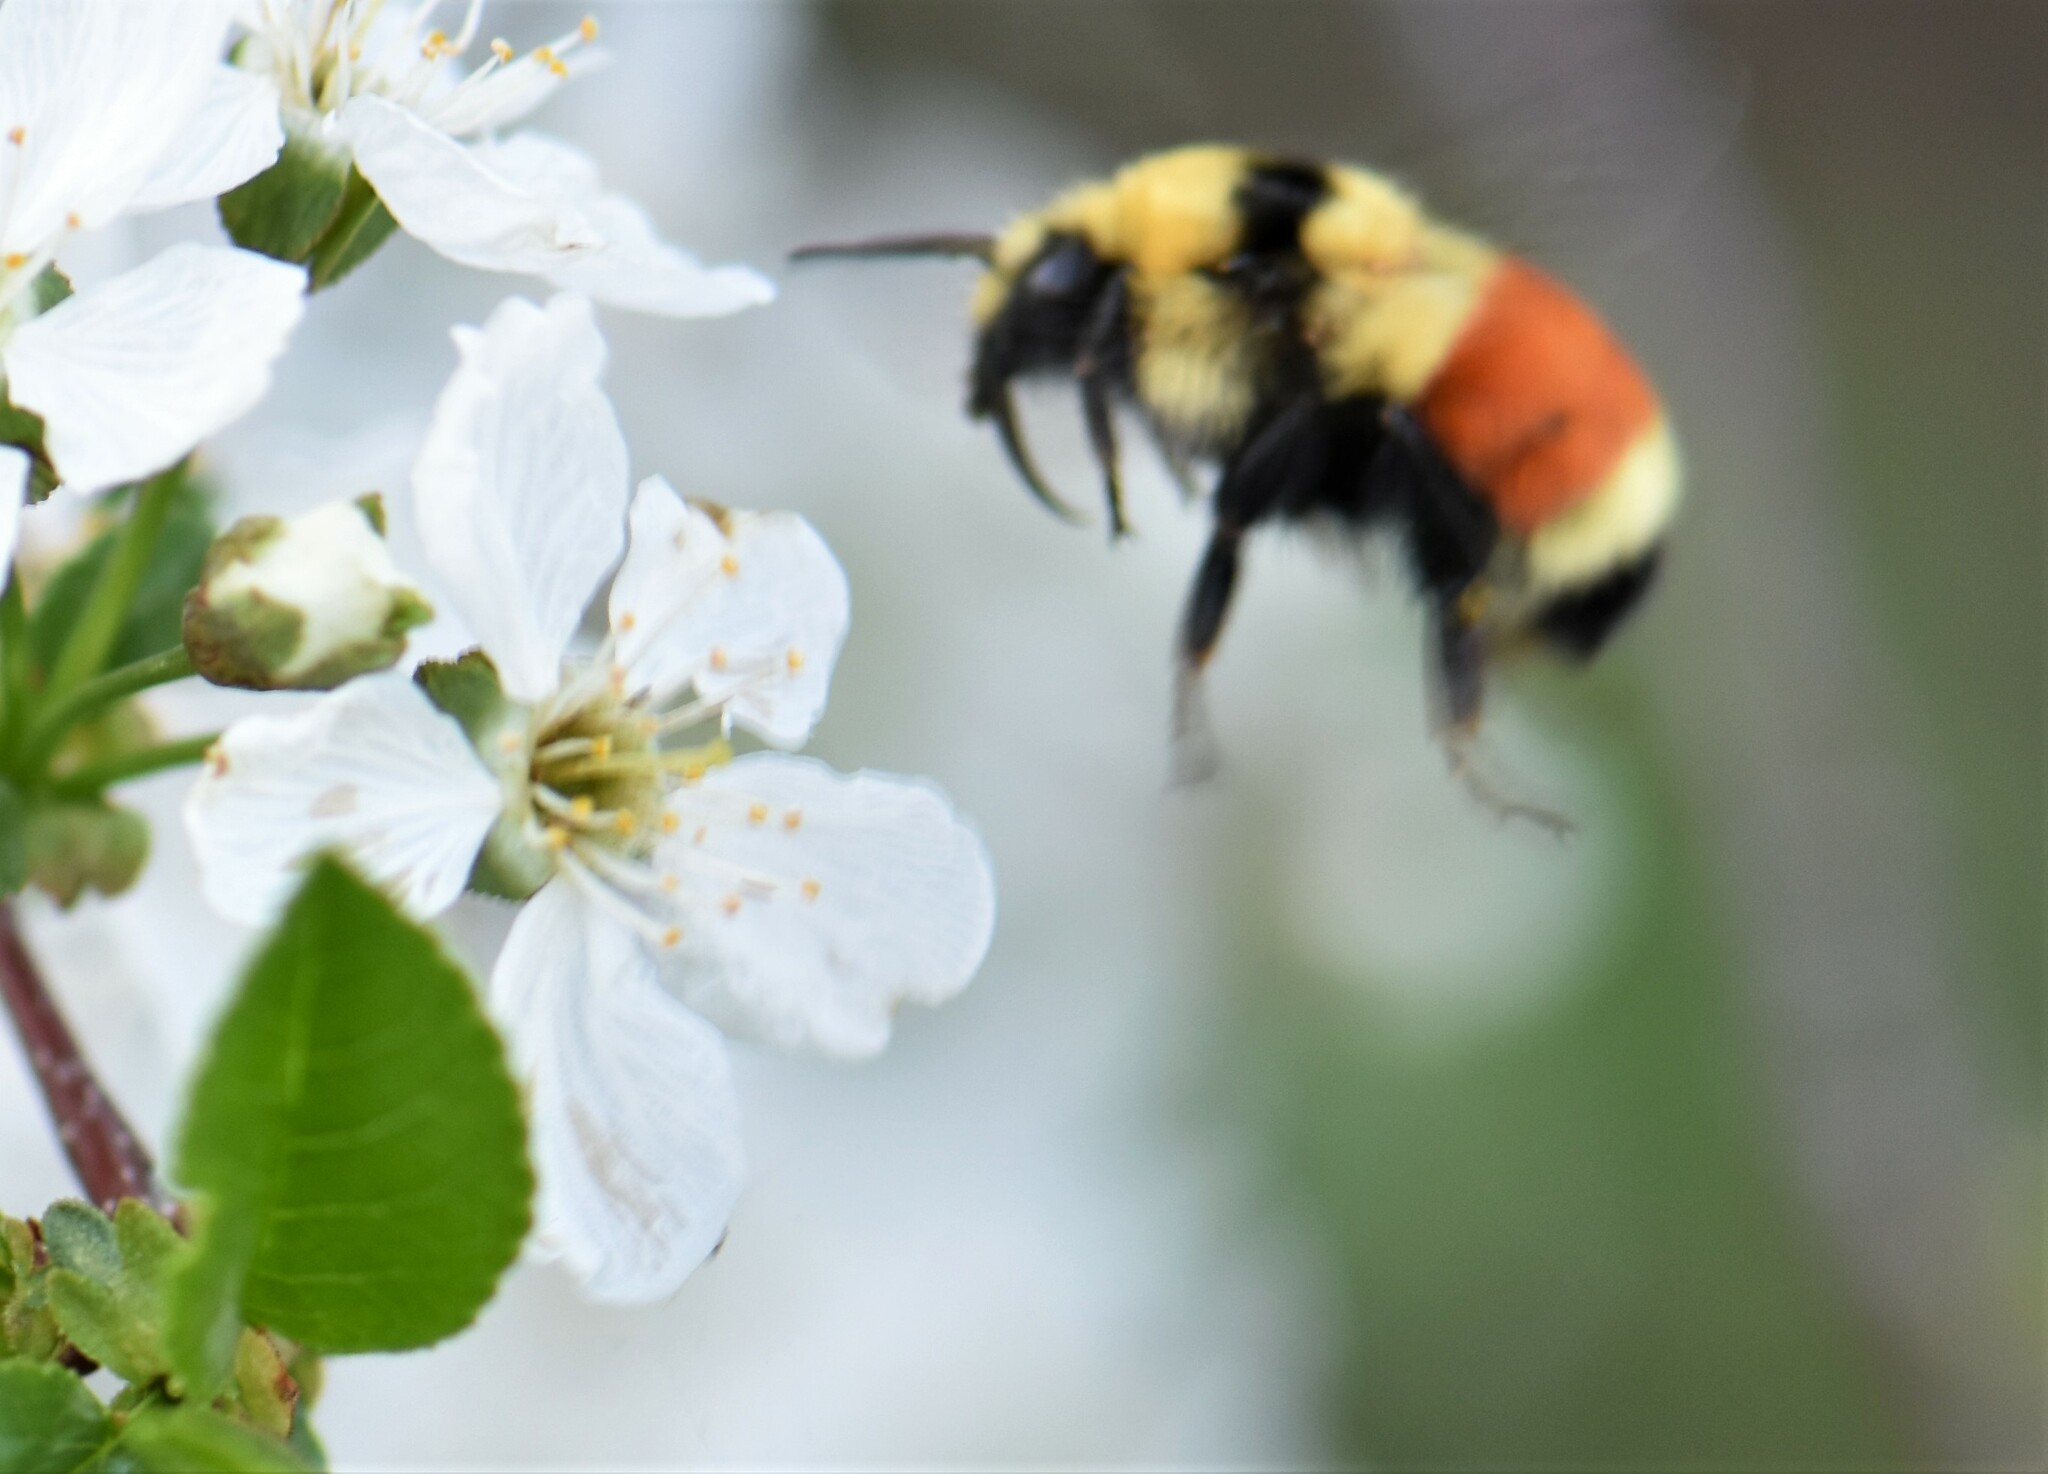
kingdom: Animalia
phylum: Arthropoda
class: Insecta
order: Hymenoptera
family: Apidae
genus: Bombus
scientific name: Bombus huntii
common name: Hunt bumble bee
